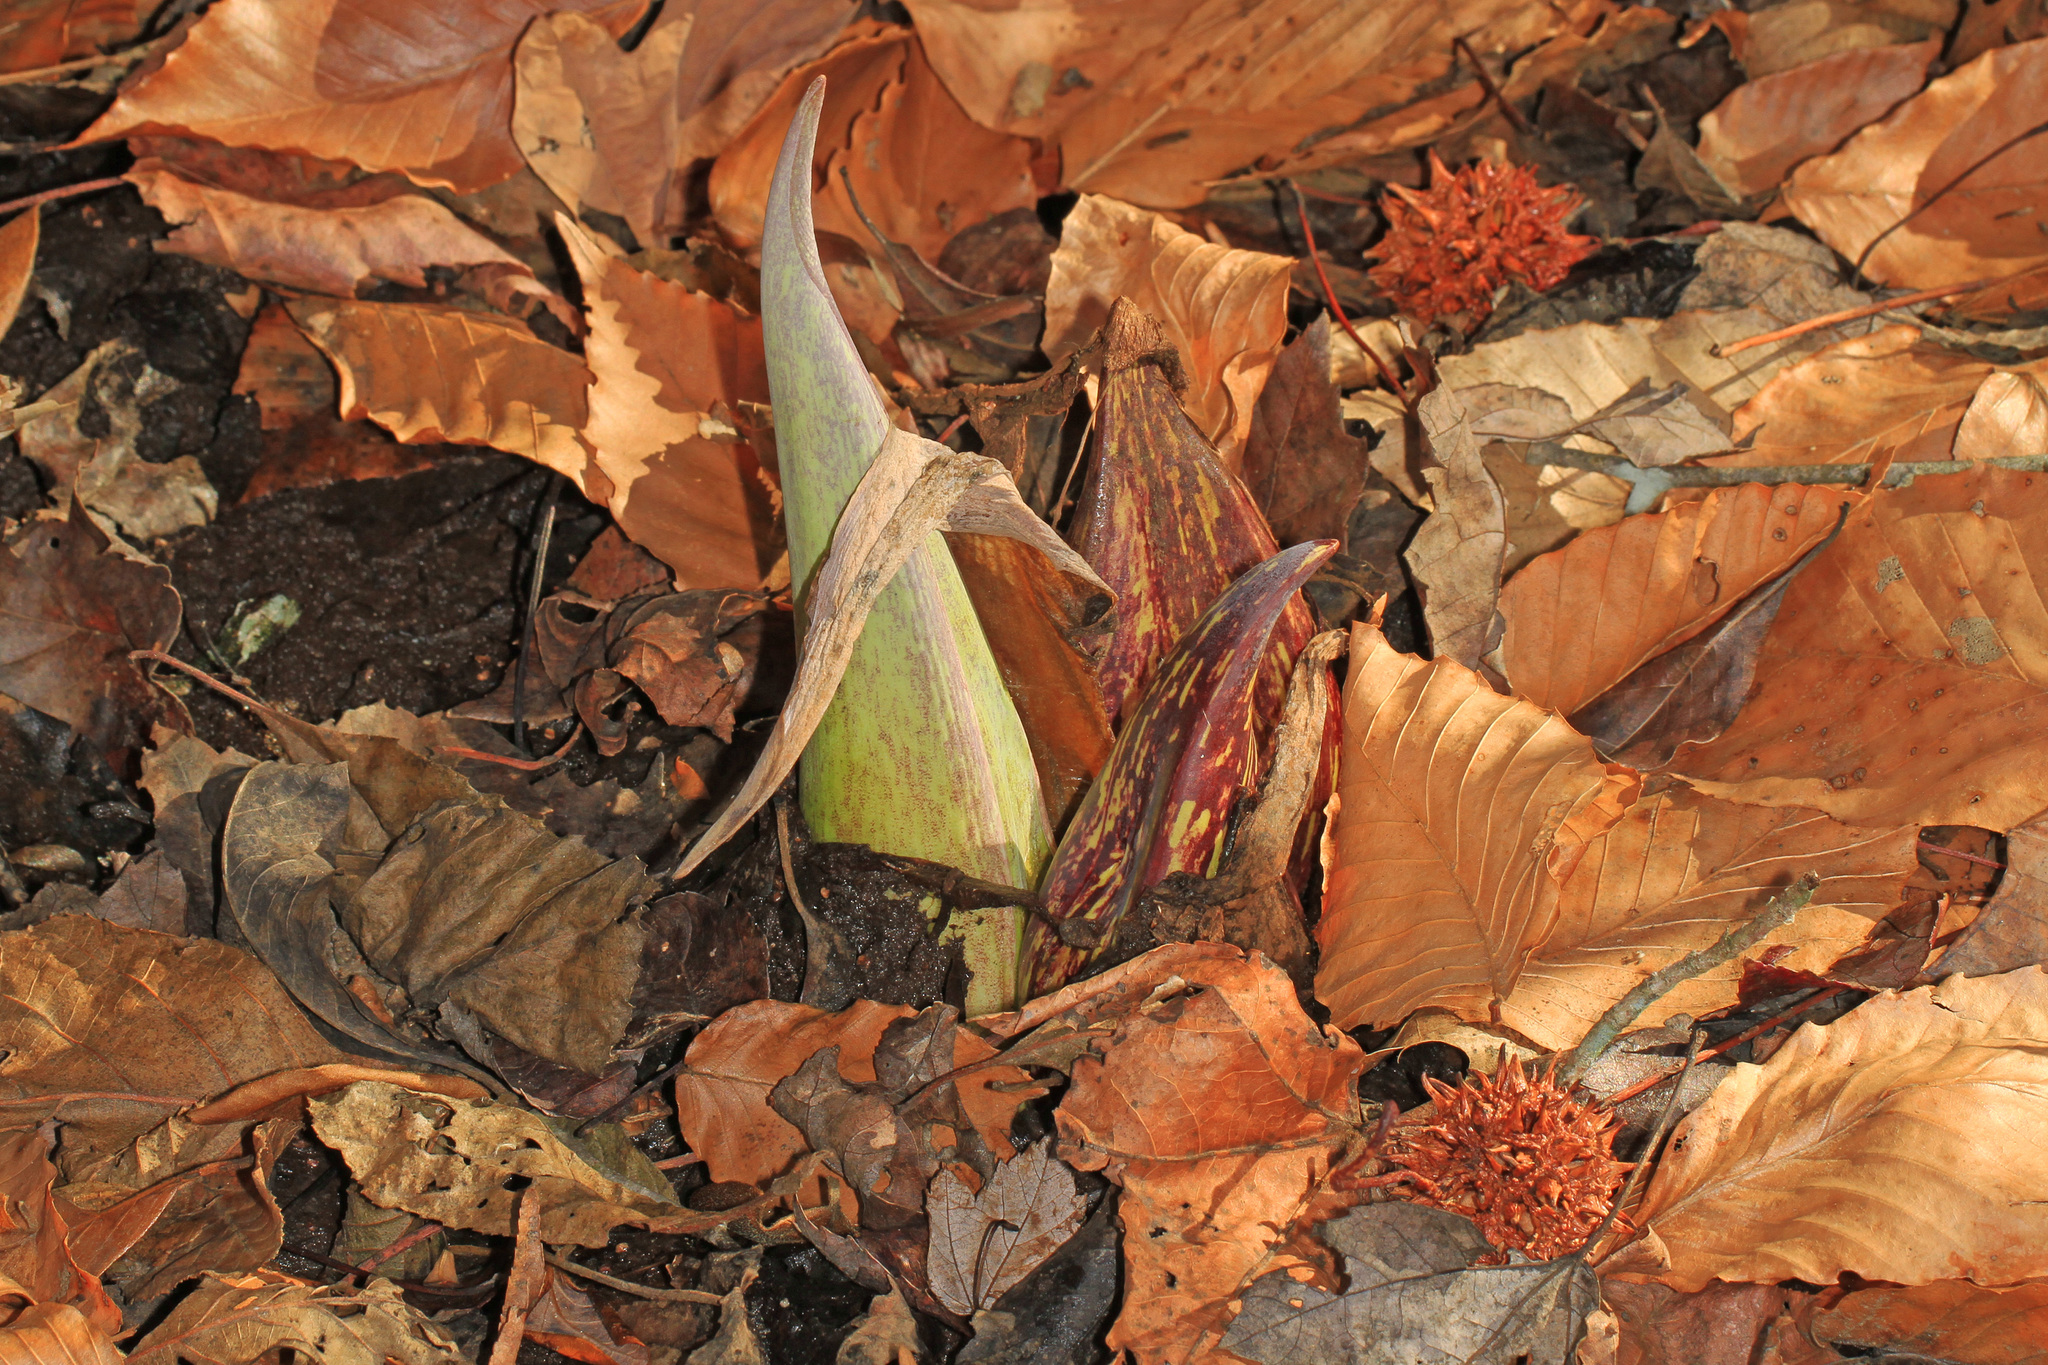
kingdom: Plantae
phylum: Tracheophyta
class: Liliopsida
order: Alismatales
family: Araceae
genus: Symplocarpus
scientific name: Symplocarpus foetidus
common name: Eastern skunk cabbage
